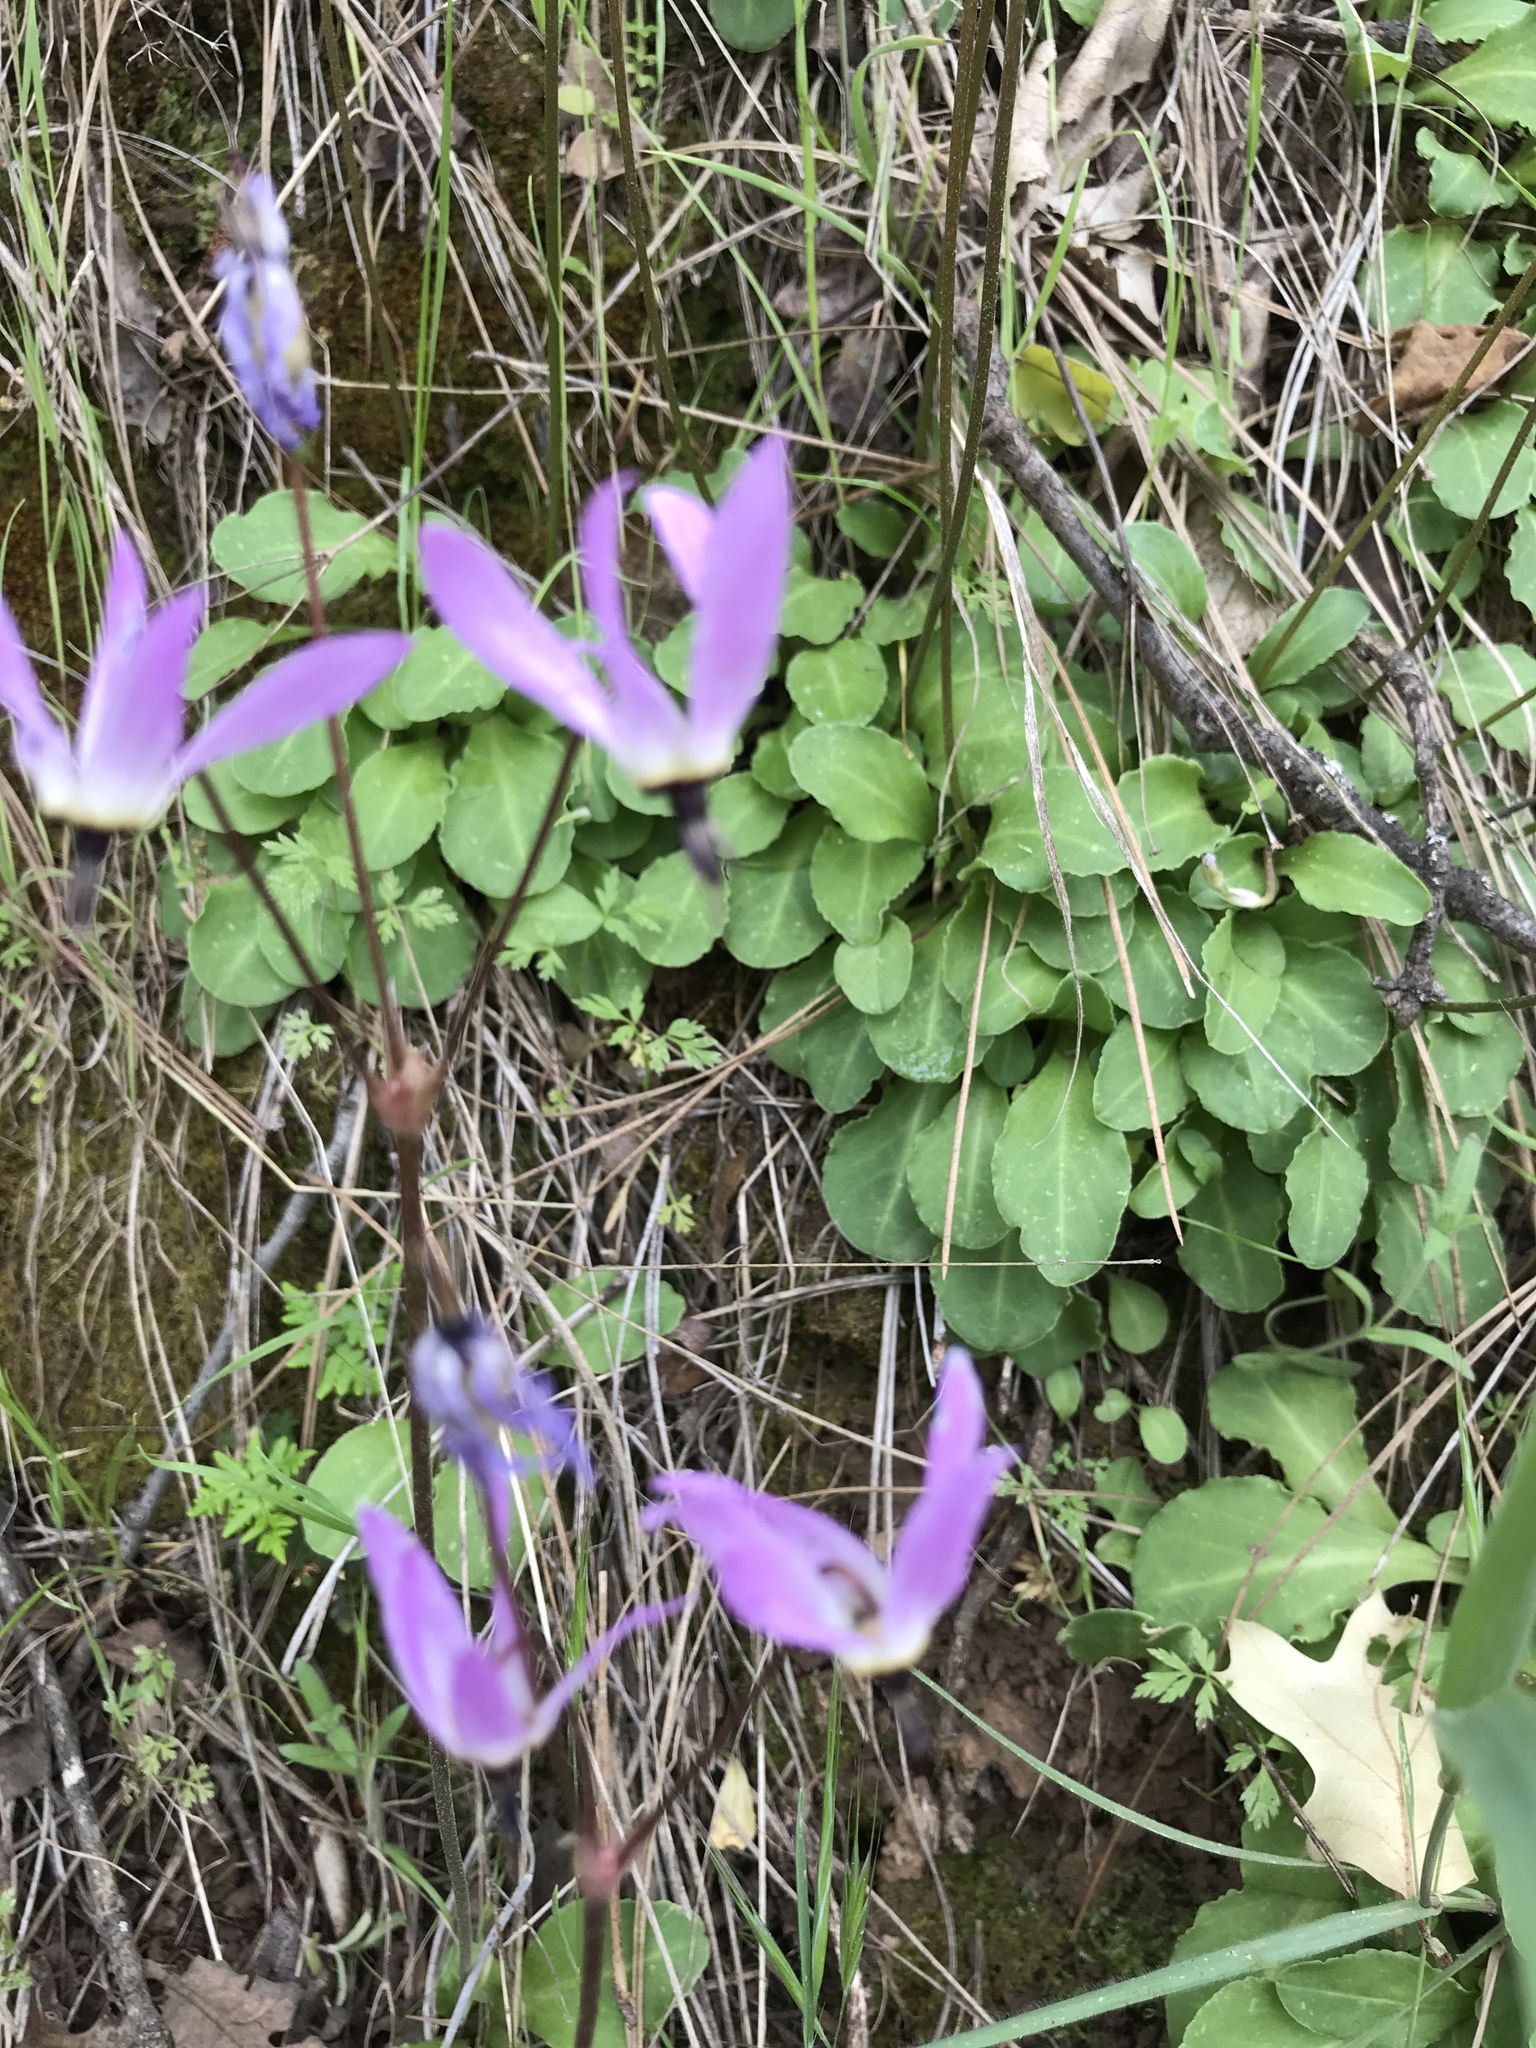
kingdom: Plantae
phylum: Tracheophyta
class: Magnoliopsida
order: Ericales
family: Primulaceae
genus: Dodecatheon
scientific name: Dodecatheon hendersonii
